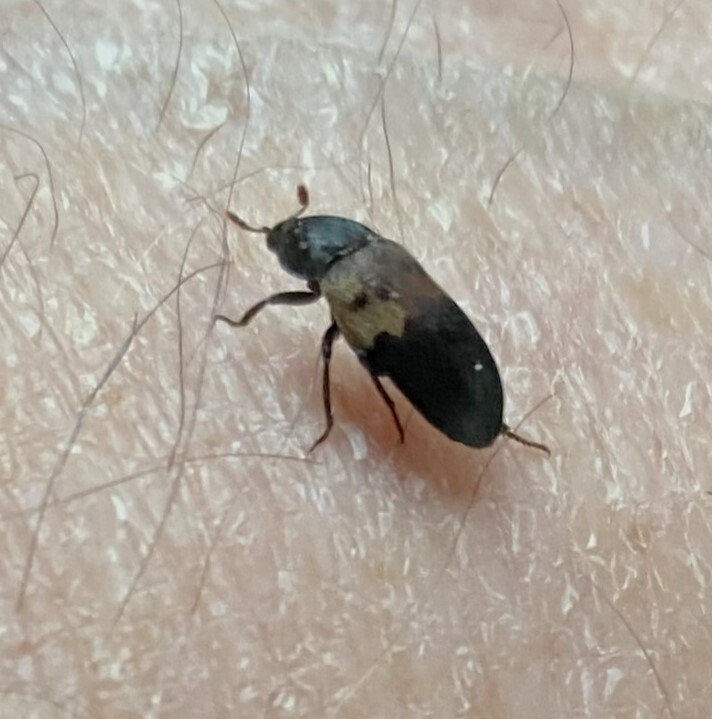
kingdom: Animalia
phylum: Arthropoda
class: Insecta
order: Coleoptera
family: Dermestidae
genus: Dermestes
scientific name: Dermestes lardarius
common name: Larder beetle
